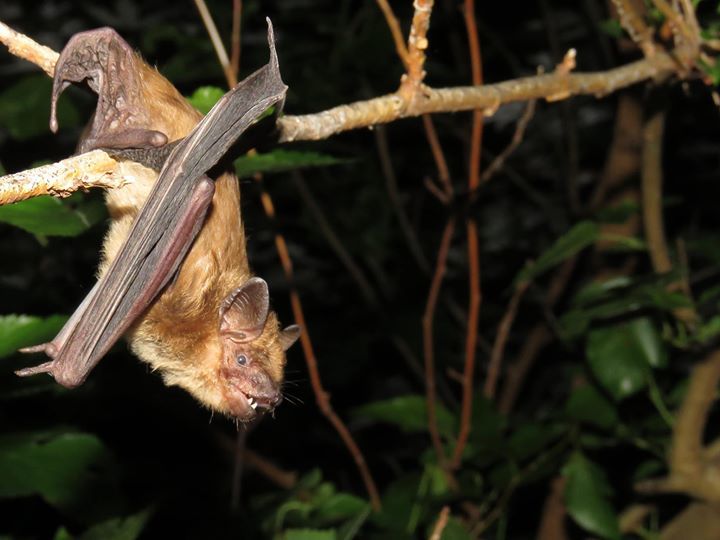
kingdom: Animalia
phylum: Chordata
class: Mammalia
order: Chiroptera
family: Vespertilionidae
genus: Eptesicus
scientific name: Eptesicus fuscus
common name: Big brown bat
